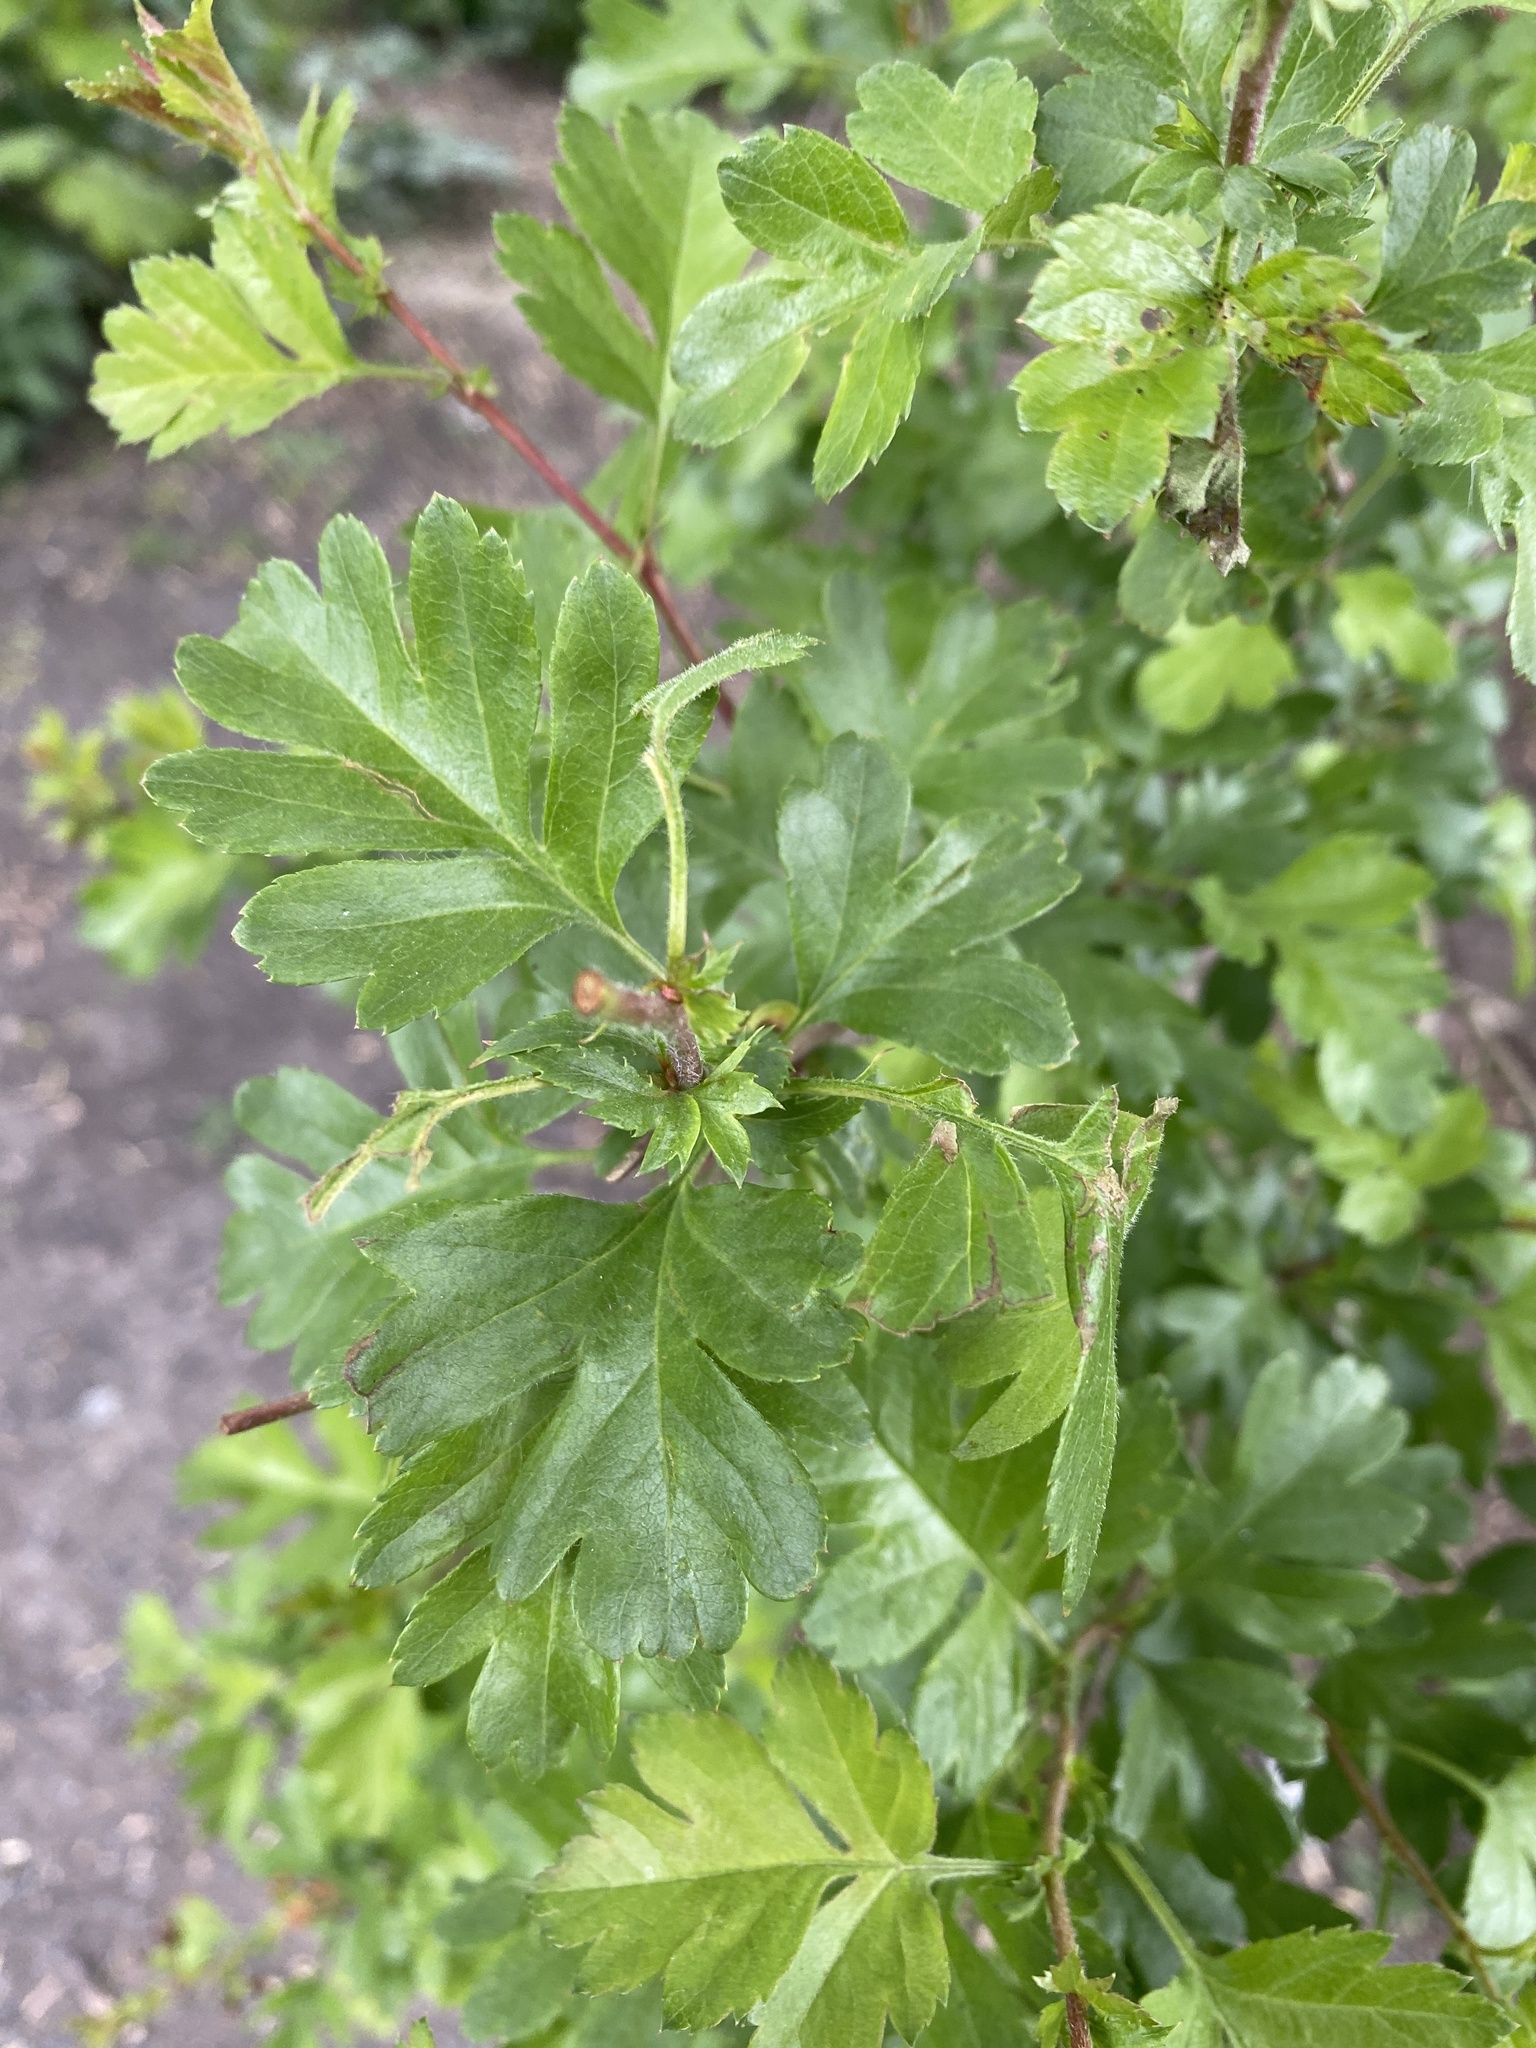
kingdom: Plantae
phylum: Tracheophyta
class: Magnoliopsida
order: Rosales
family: Rosaceae
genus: Crataegus
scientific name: Crataegus monogyna
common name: Hawthorn
